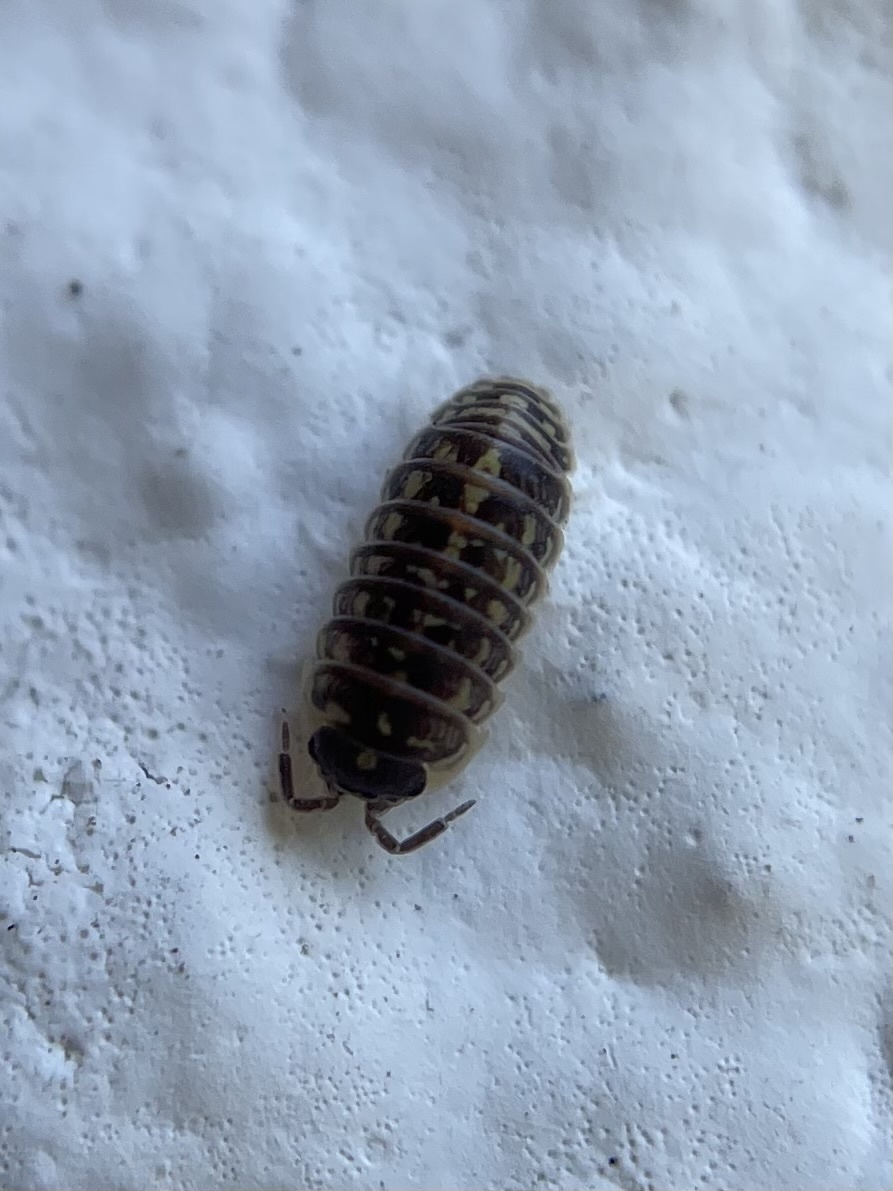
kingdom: Animalia
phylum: Arthropoda
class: Malacostraca
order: Isopoda
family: Armadillidiidae
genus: Armadillidium
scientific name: Armadillidium versicolor
